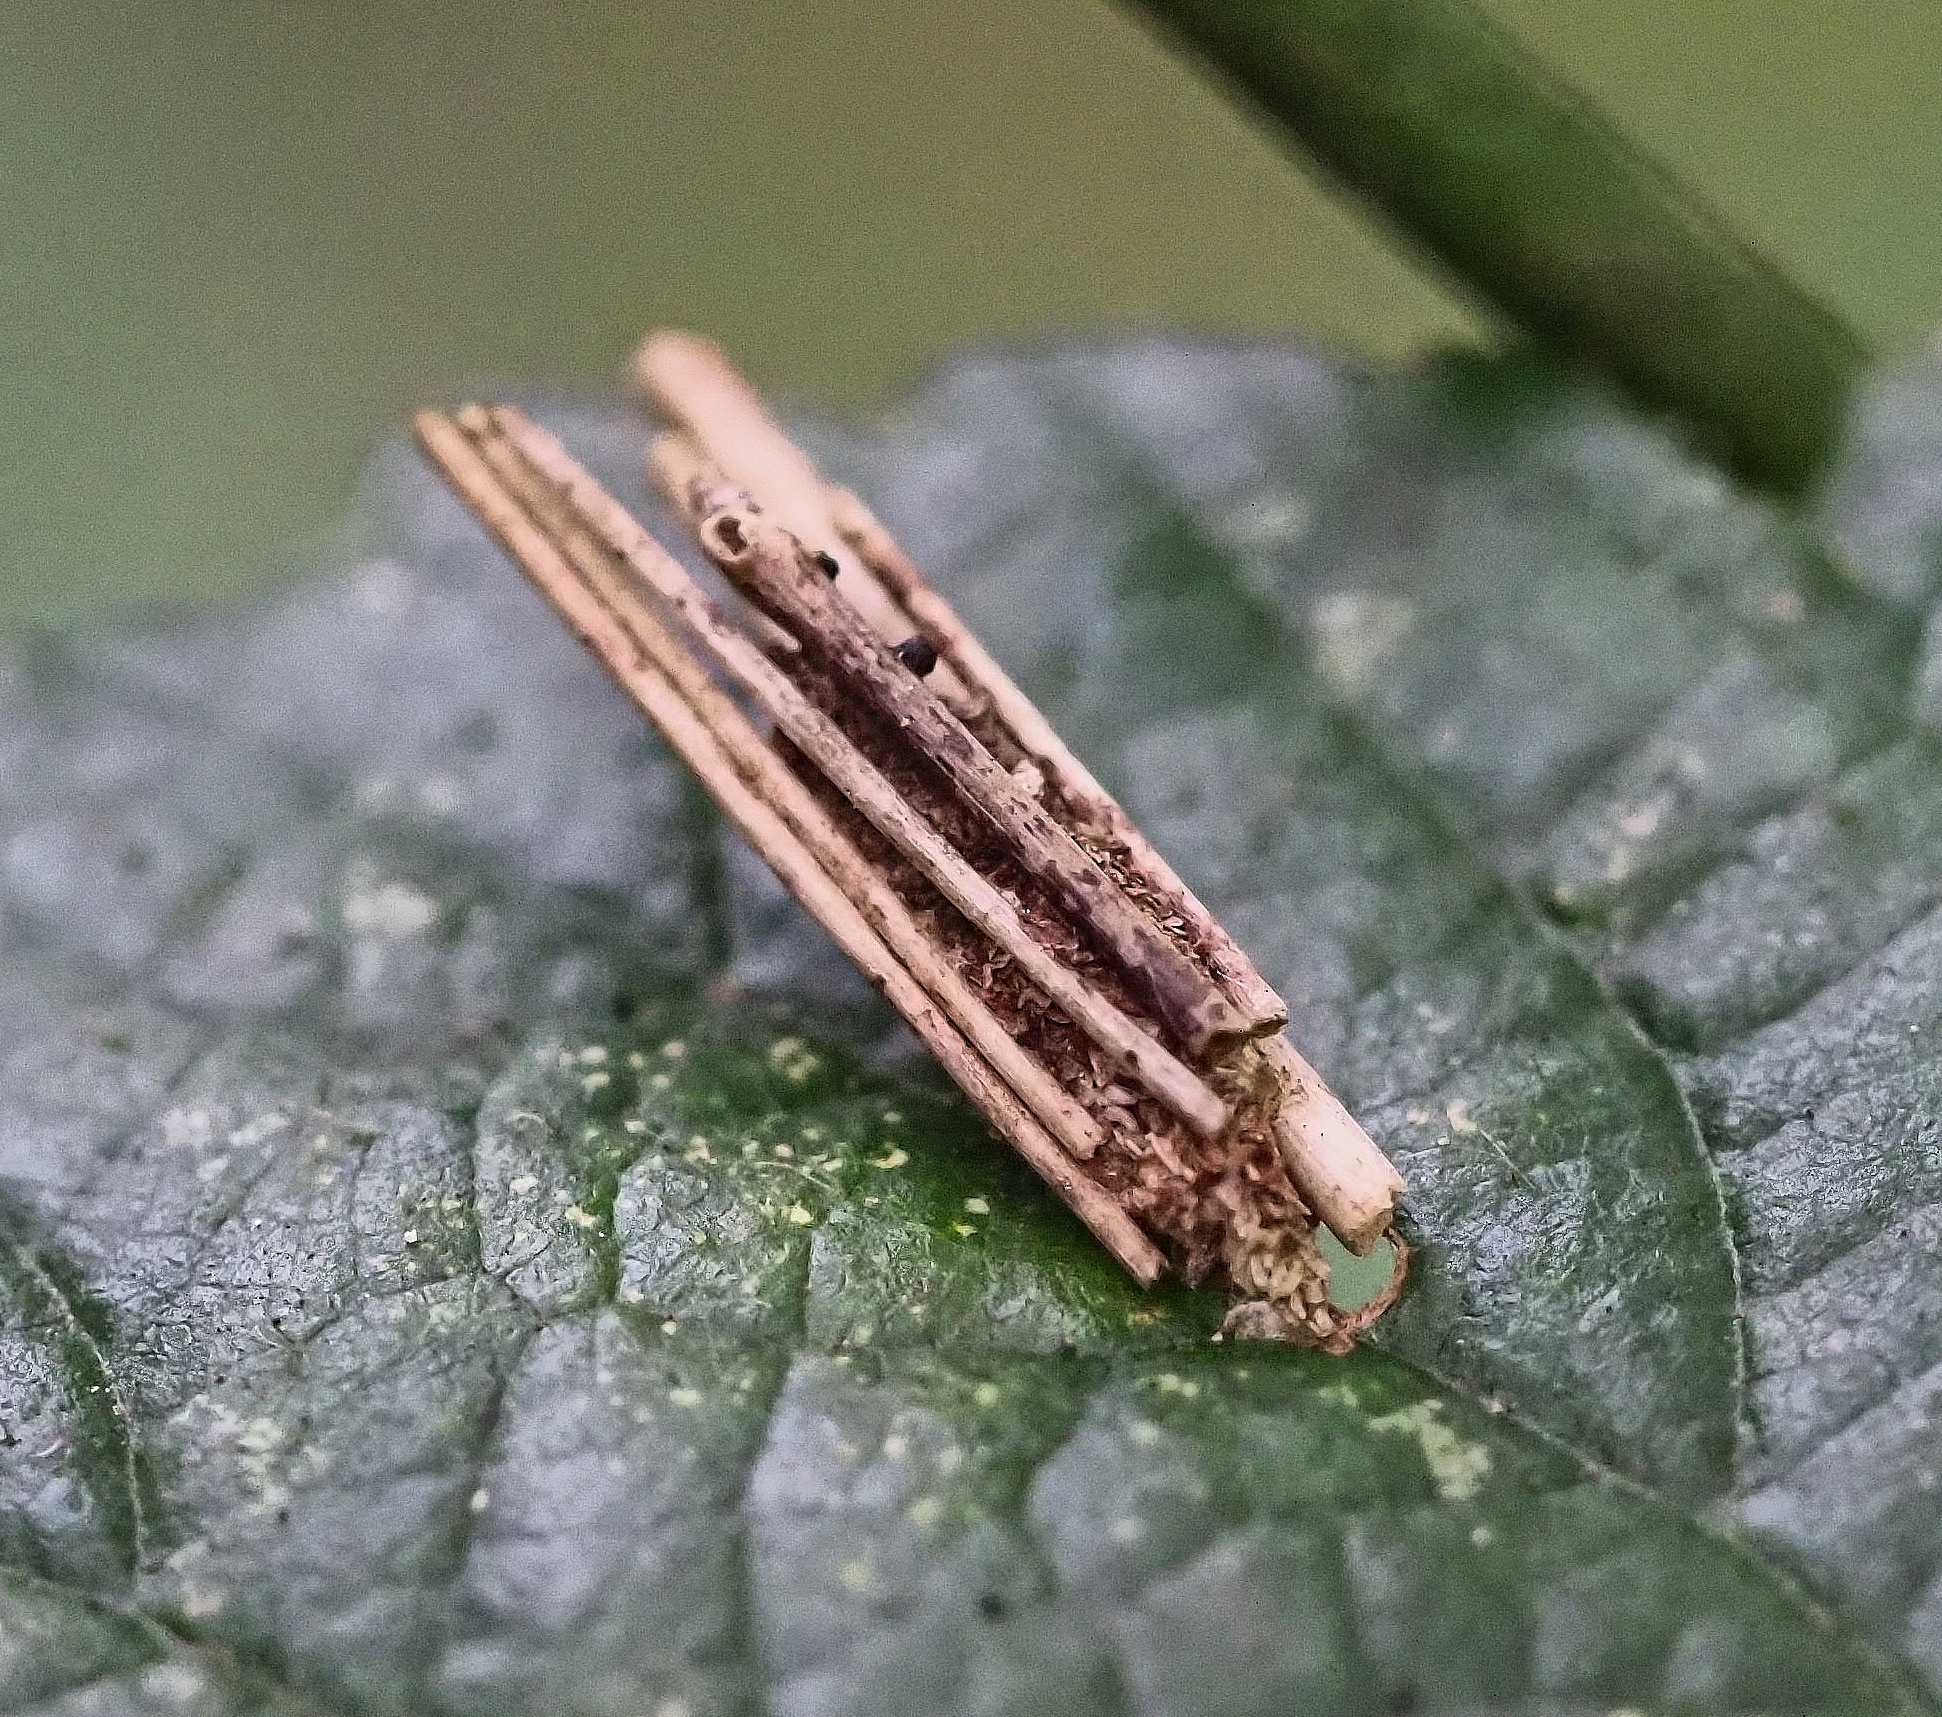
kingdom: Animalia
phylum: Arthropoda
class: Insecta
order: Lepidoptera
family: Psychidae
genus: Psyche
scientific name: Psyche casta
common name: Common sweep
